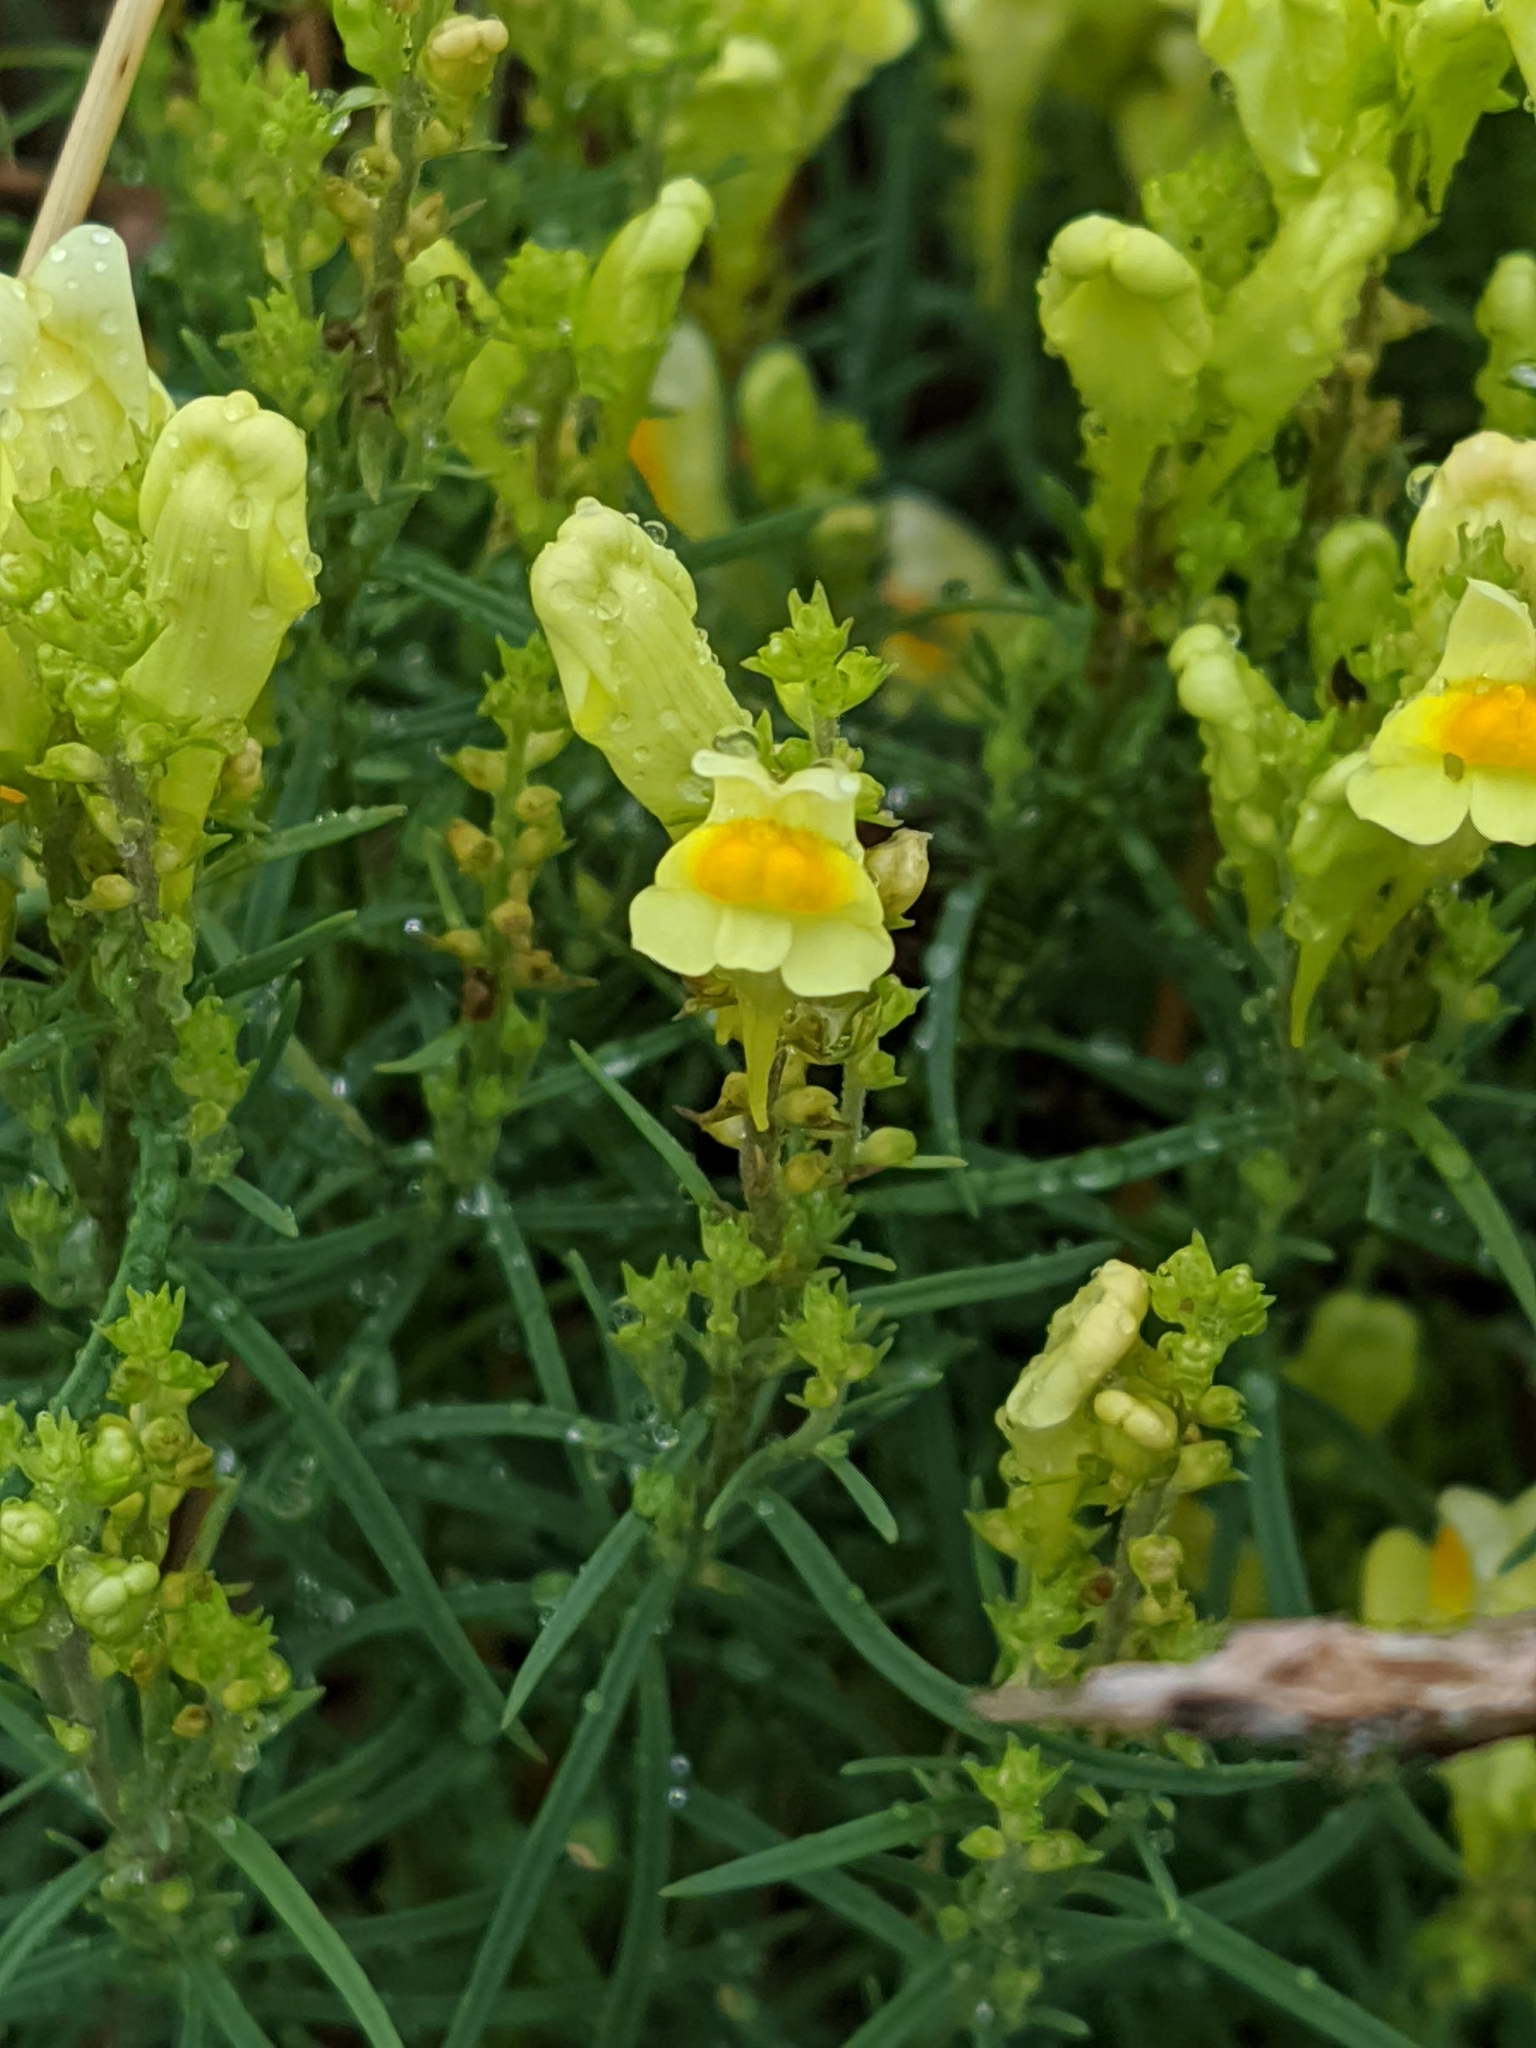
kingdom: Plantae
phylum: Tracheophyta
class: Magnoliopsida
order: Lamiales
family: Plantaginaceae
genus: Linaria
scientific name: Linaria vulgaris
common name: Butter and eggs
